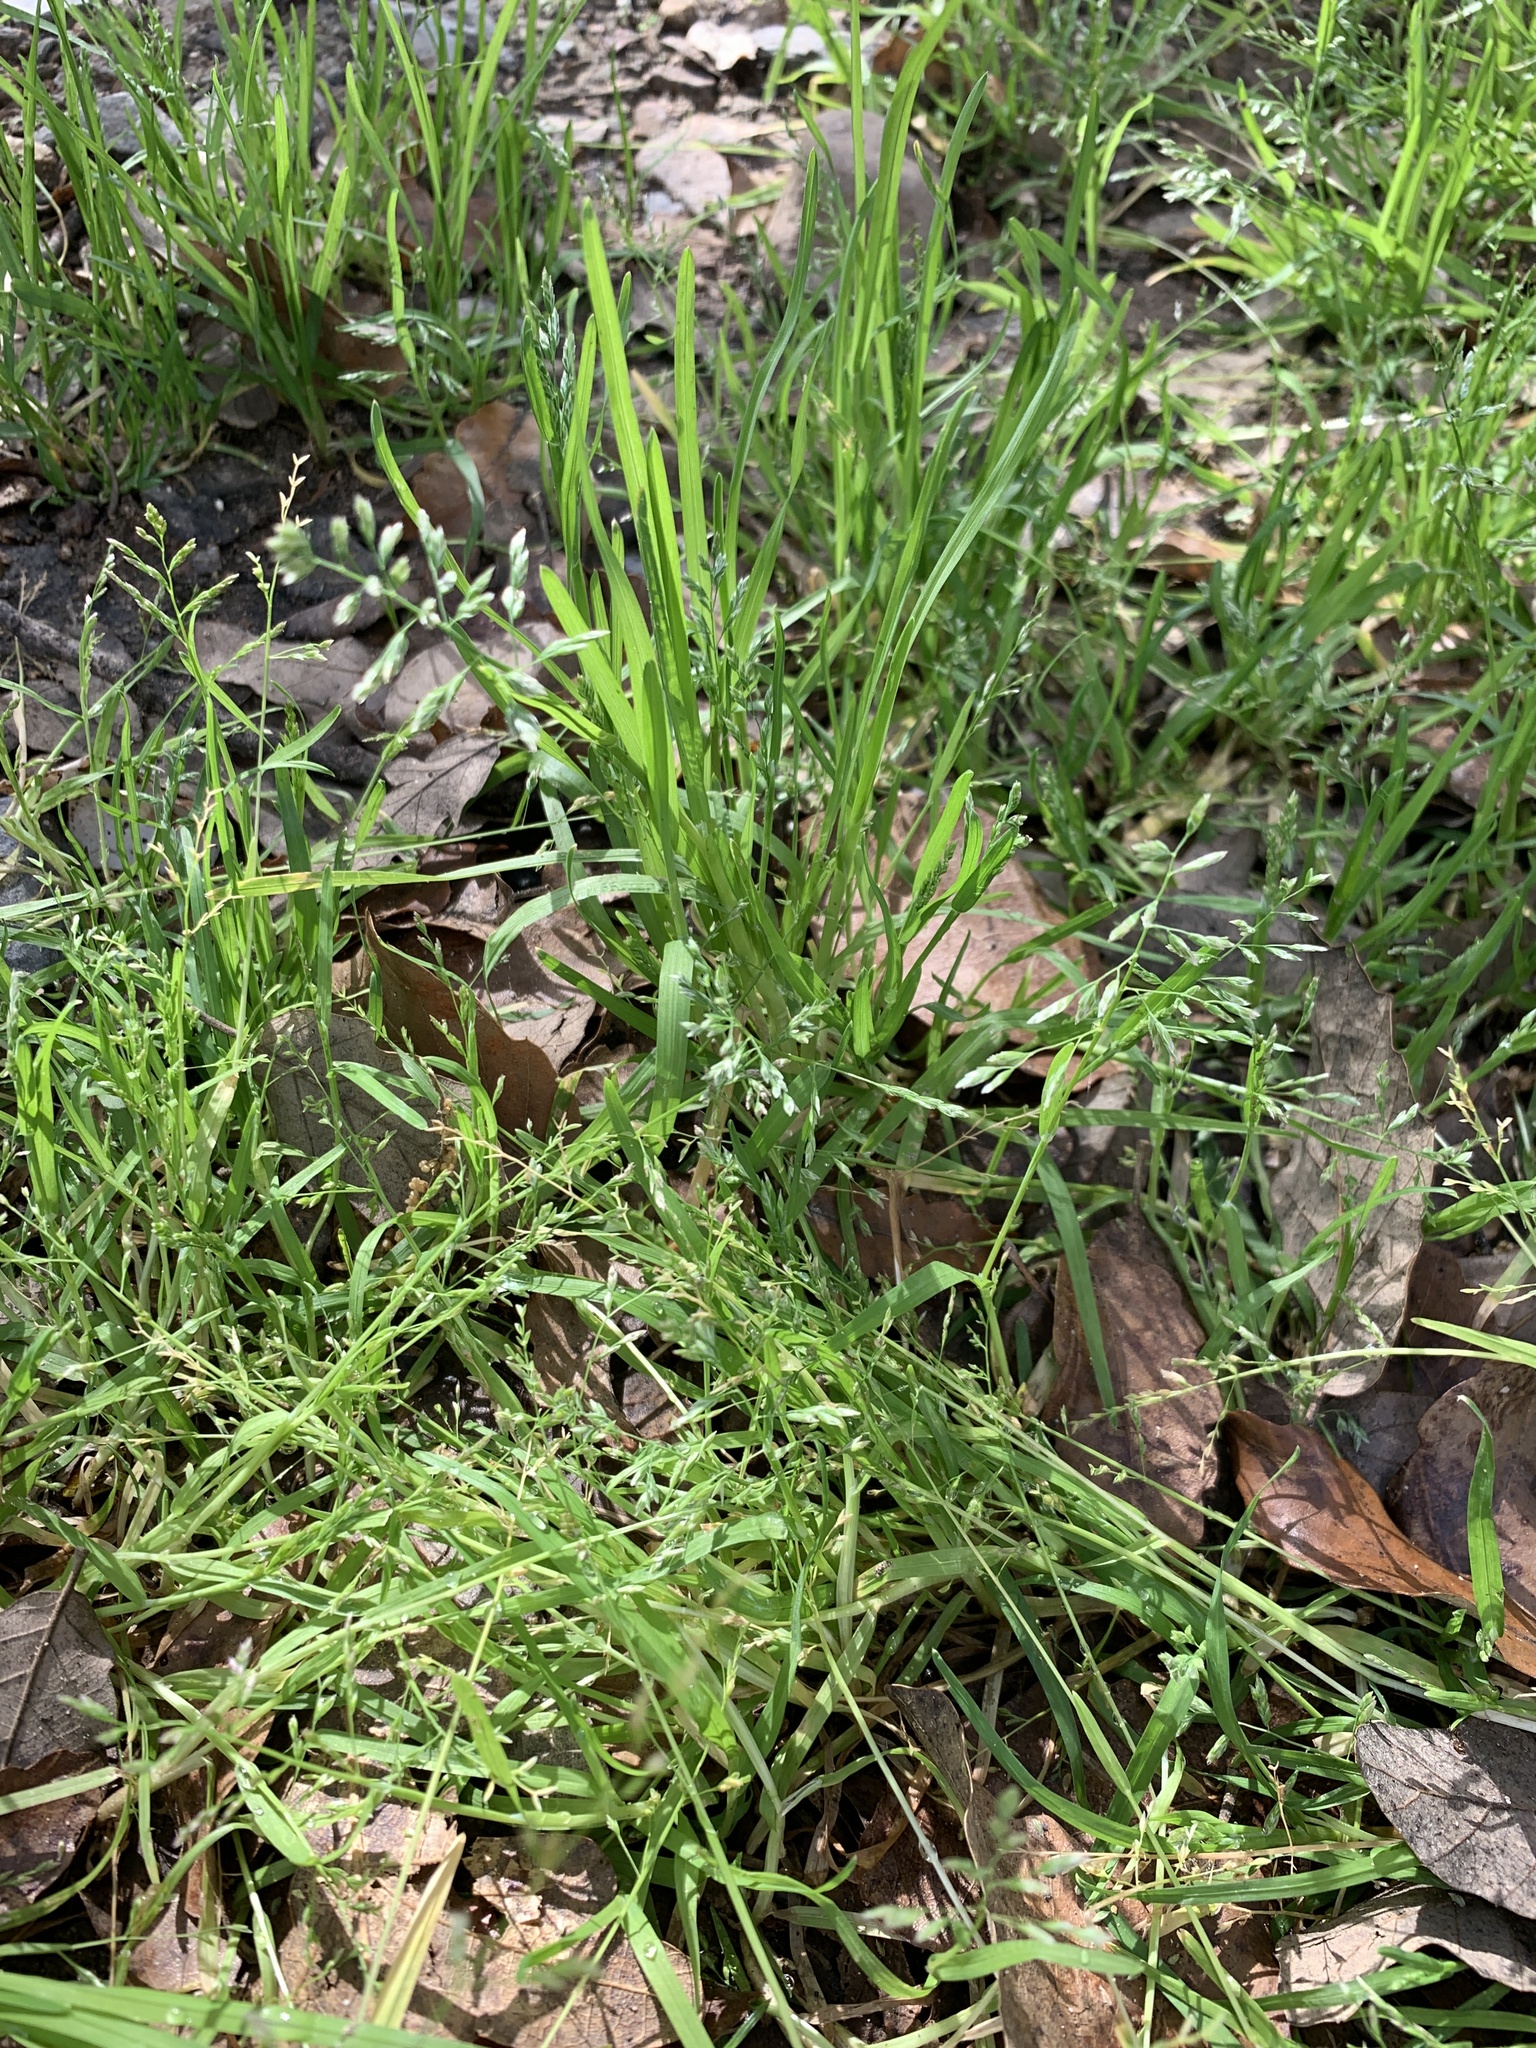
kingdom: Plantae
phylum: Tracheophyta
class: Liliopsida
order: Poales
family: Poaceae
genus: Poa
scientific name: Poa annua
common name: Annual bluegrass
